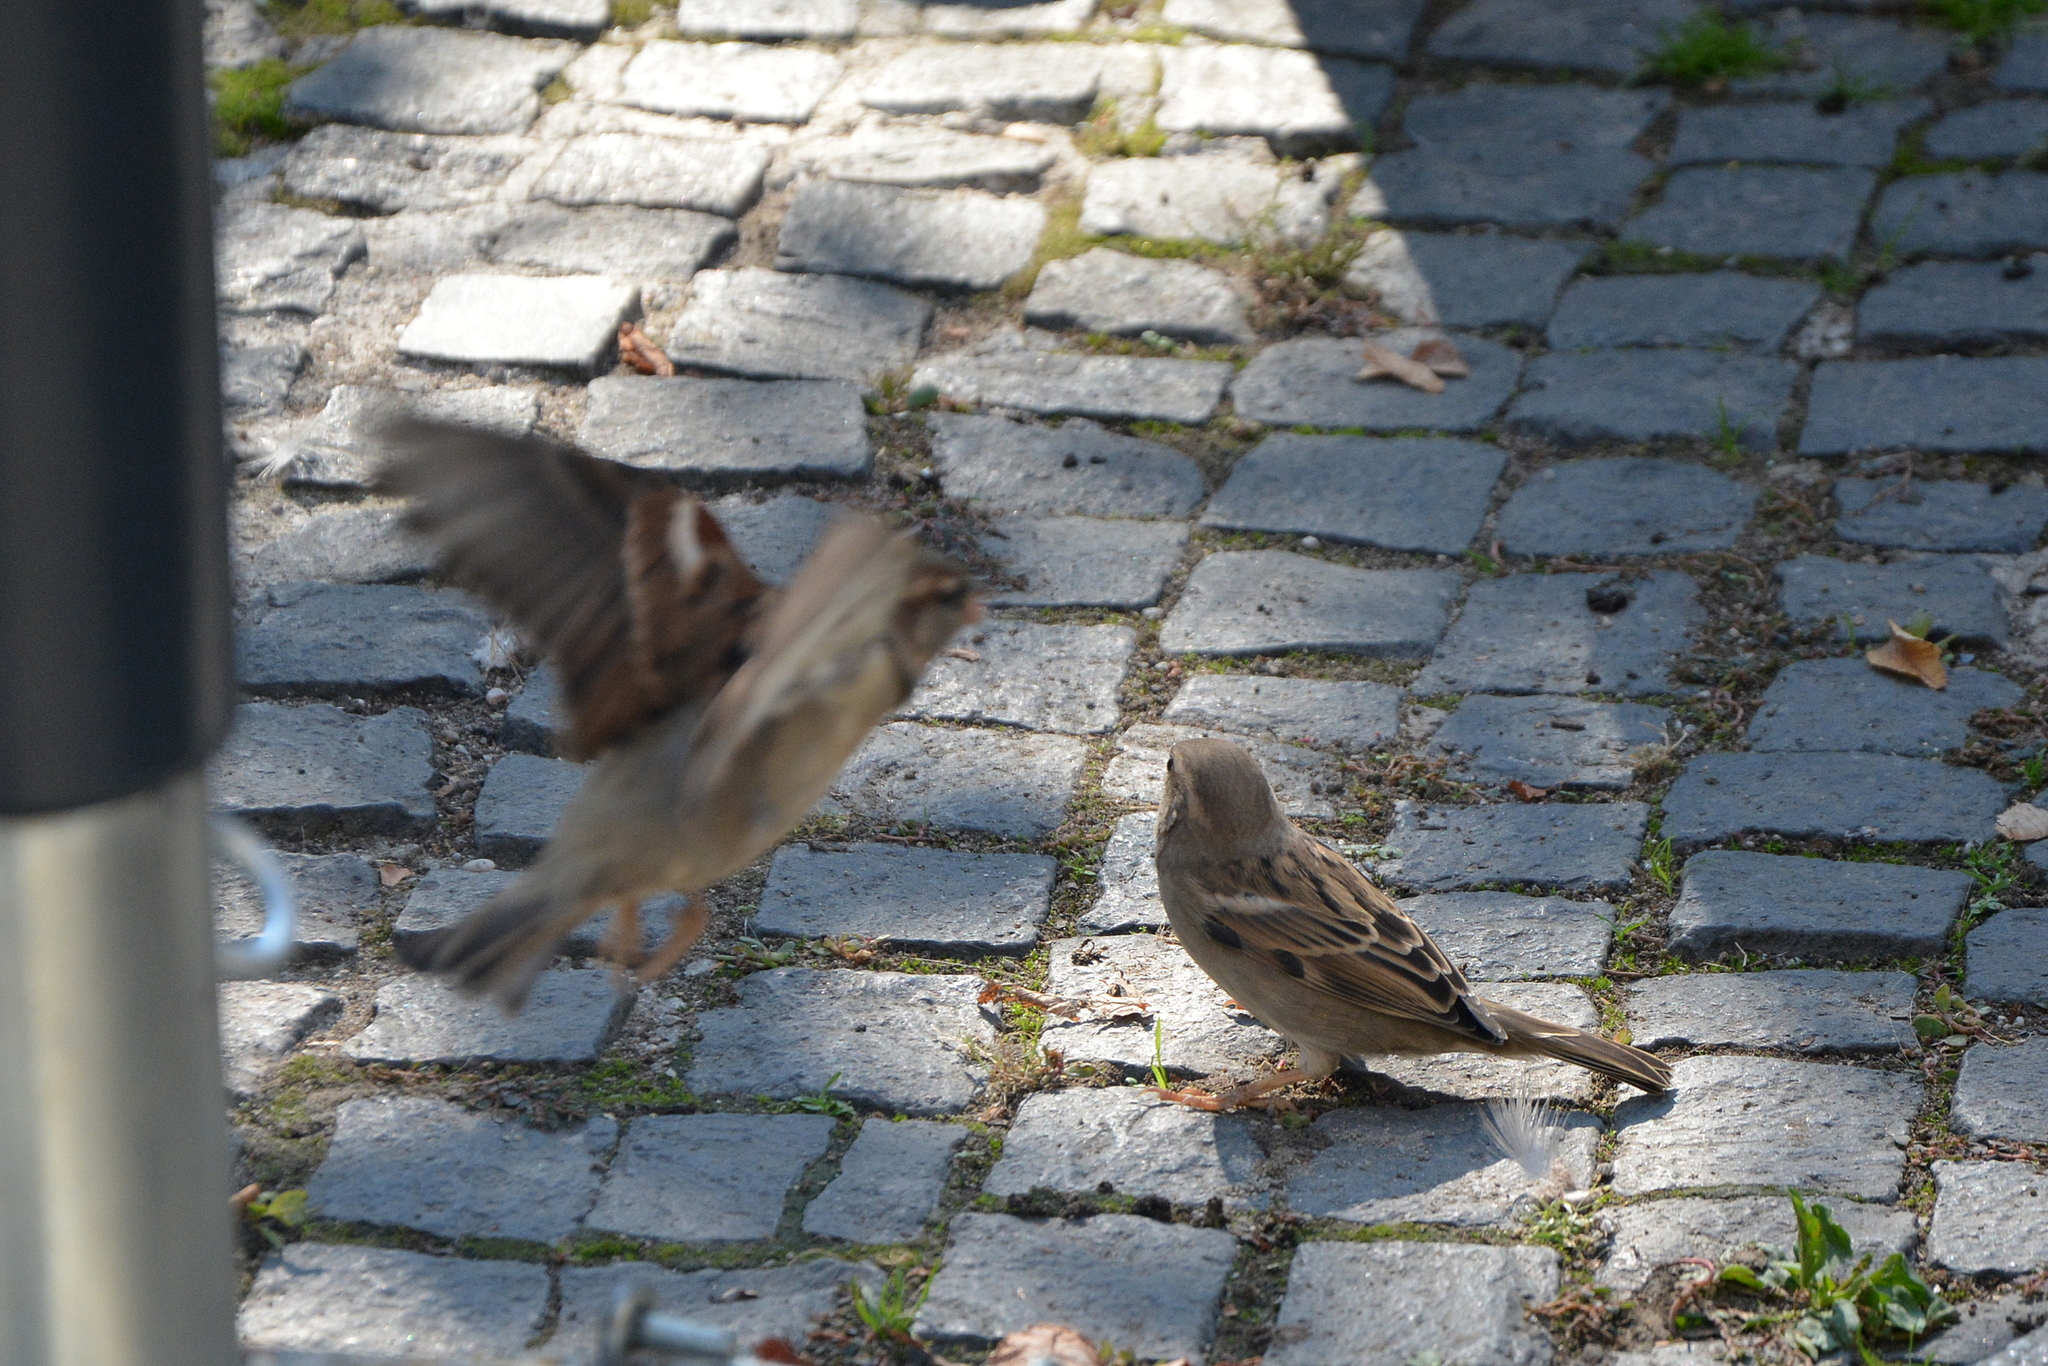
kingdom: Animalia
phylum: Chordata
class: Aves
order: Passeriformes
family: Passeridae
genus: Passer
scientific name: Passer domesticus
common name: House sparrow
